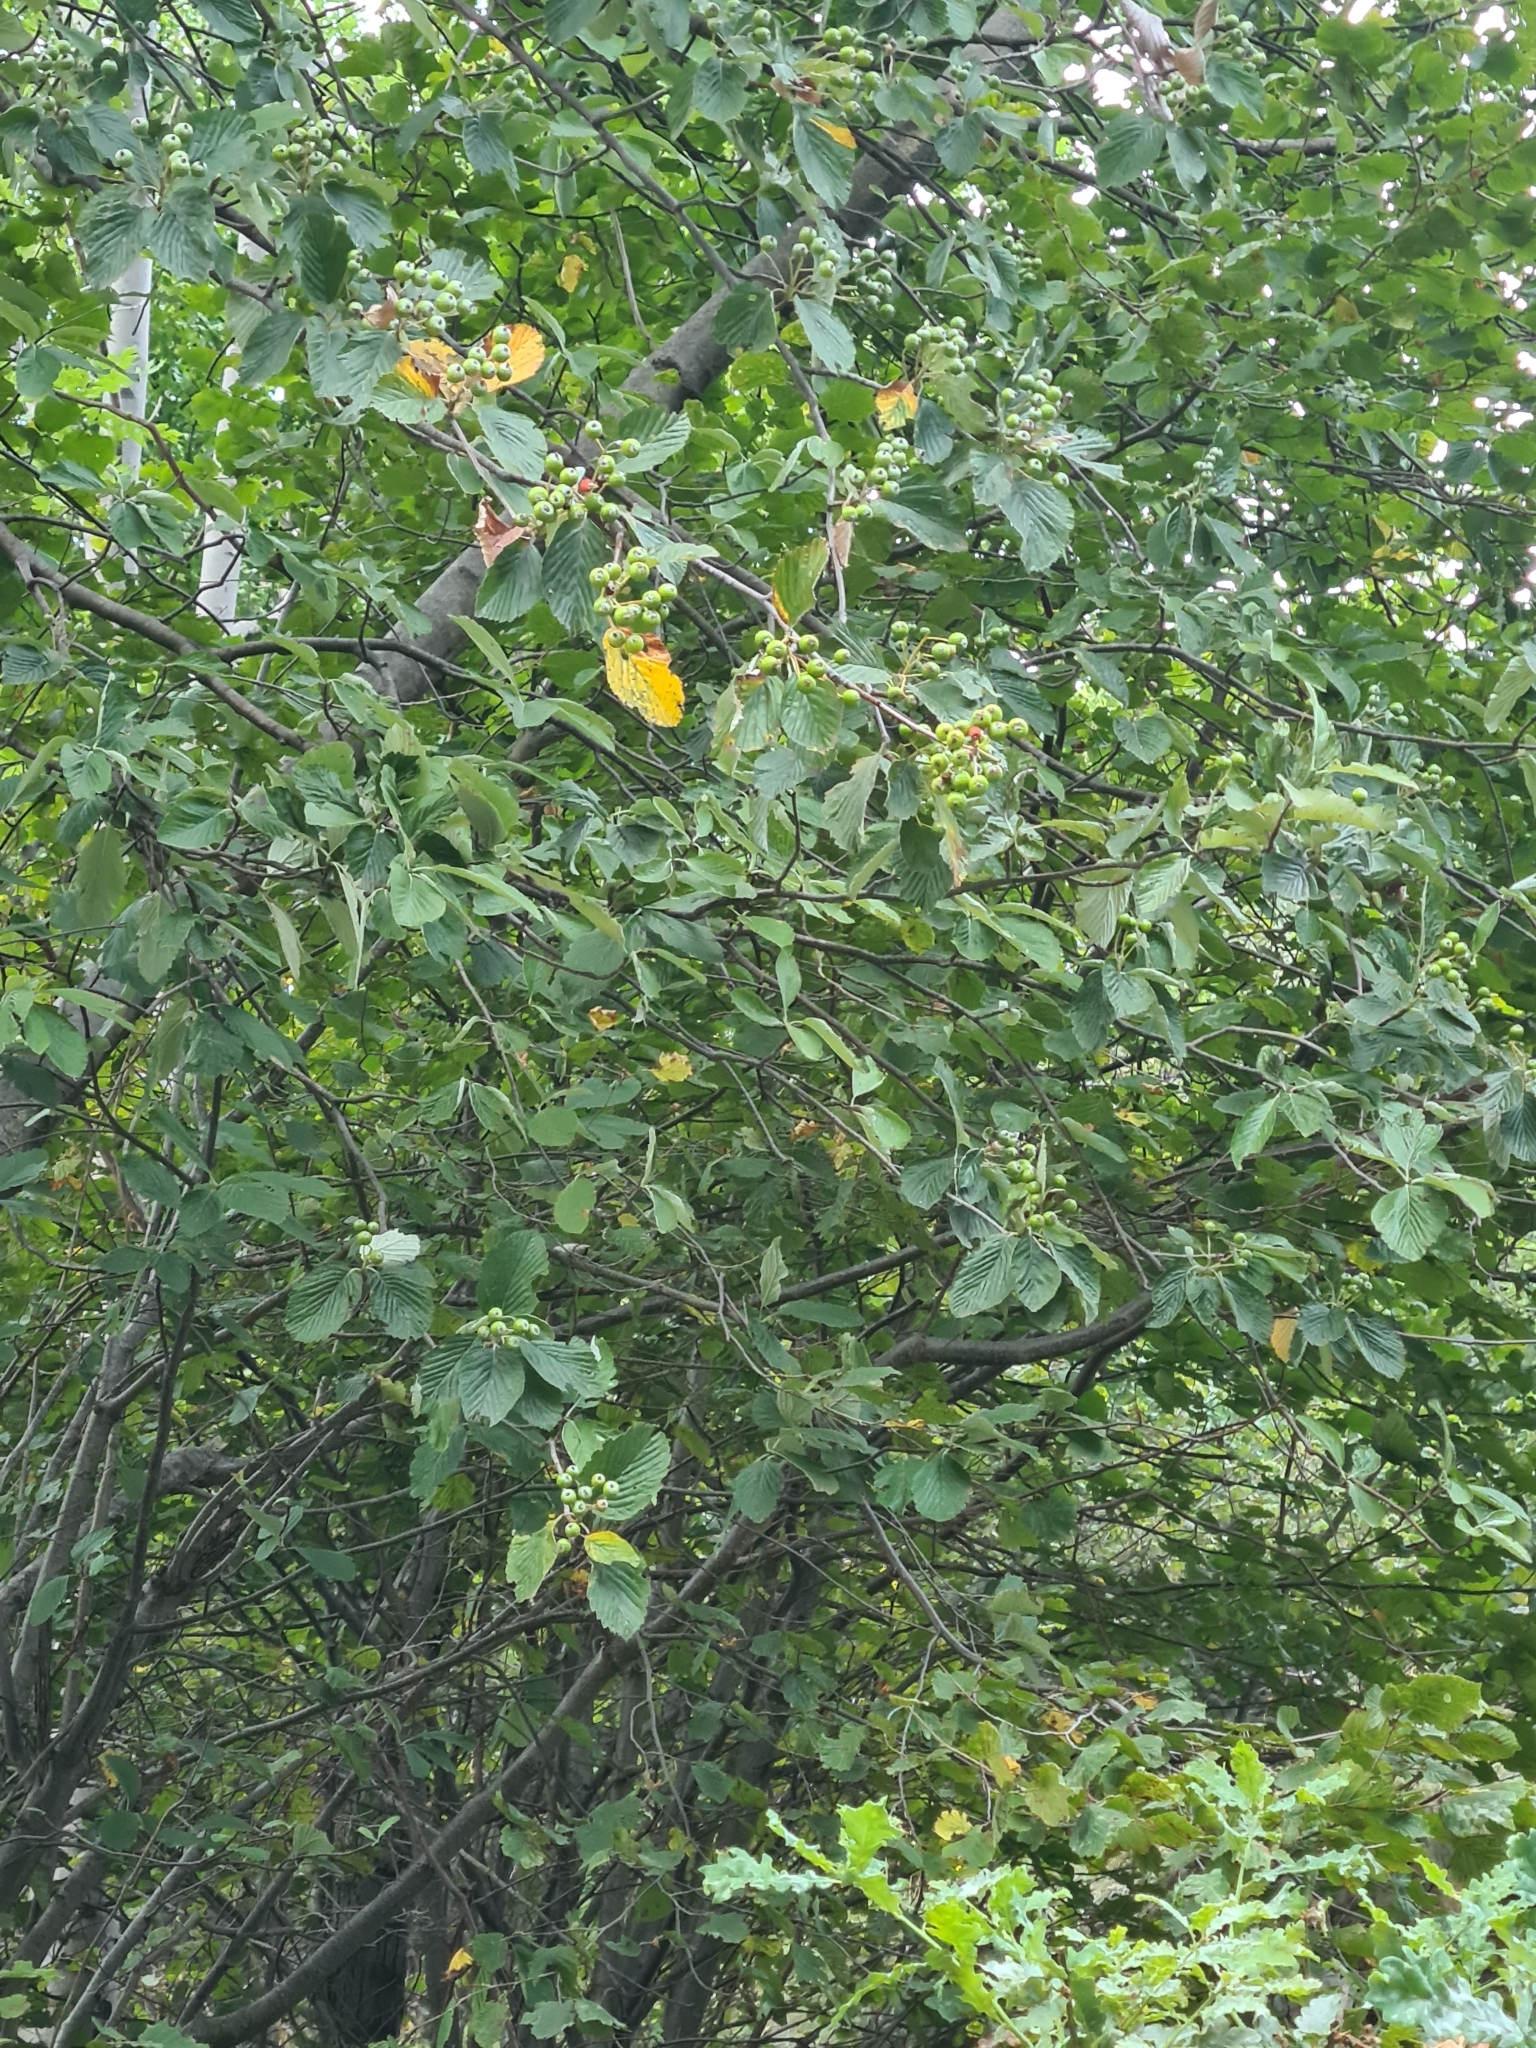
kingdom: Plantae
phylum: Tracheophyta
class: Magnoliopsida
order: Rosales
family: Rosaceae
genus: Aria
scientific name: Aria edulis
